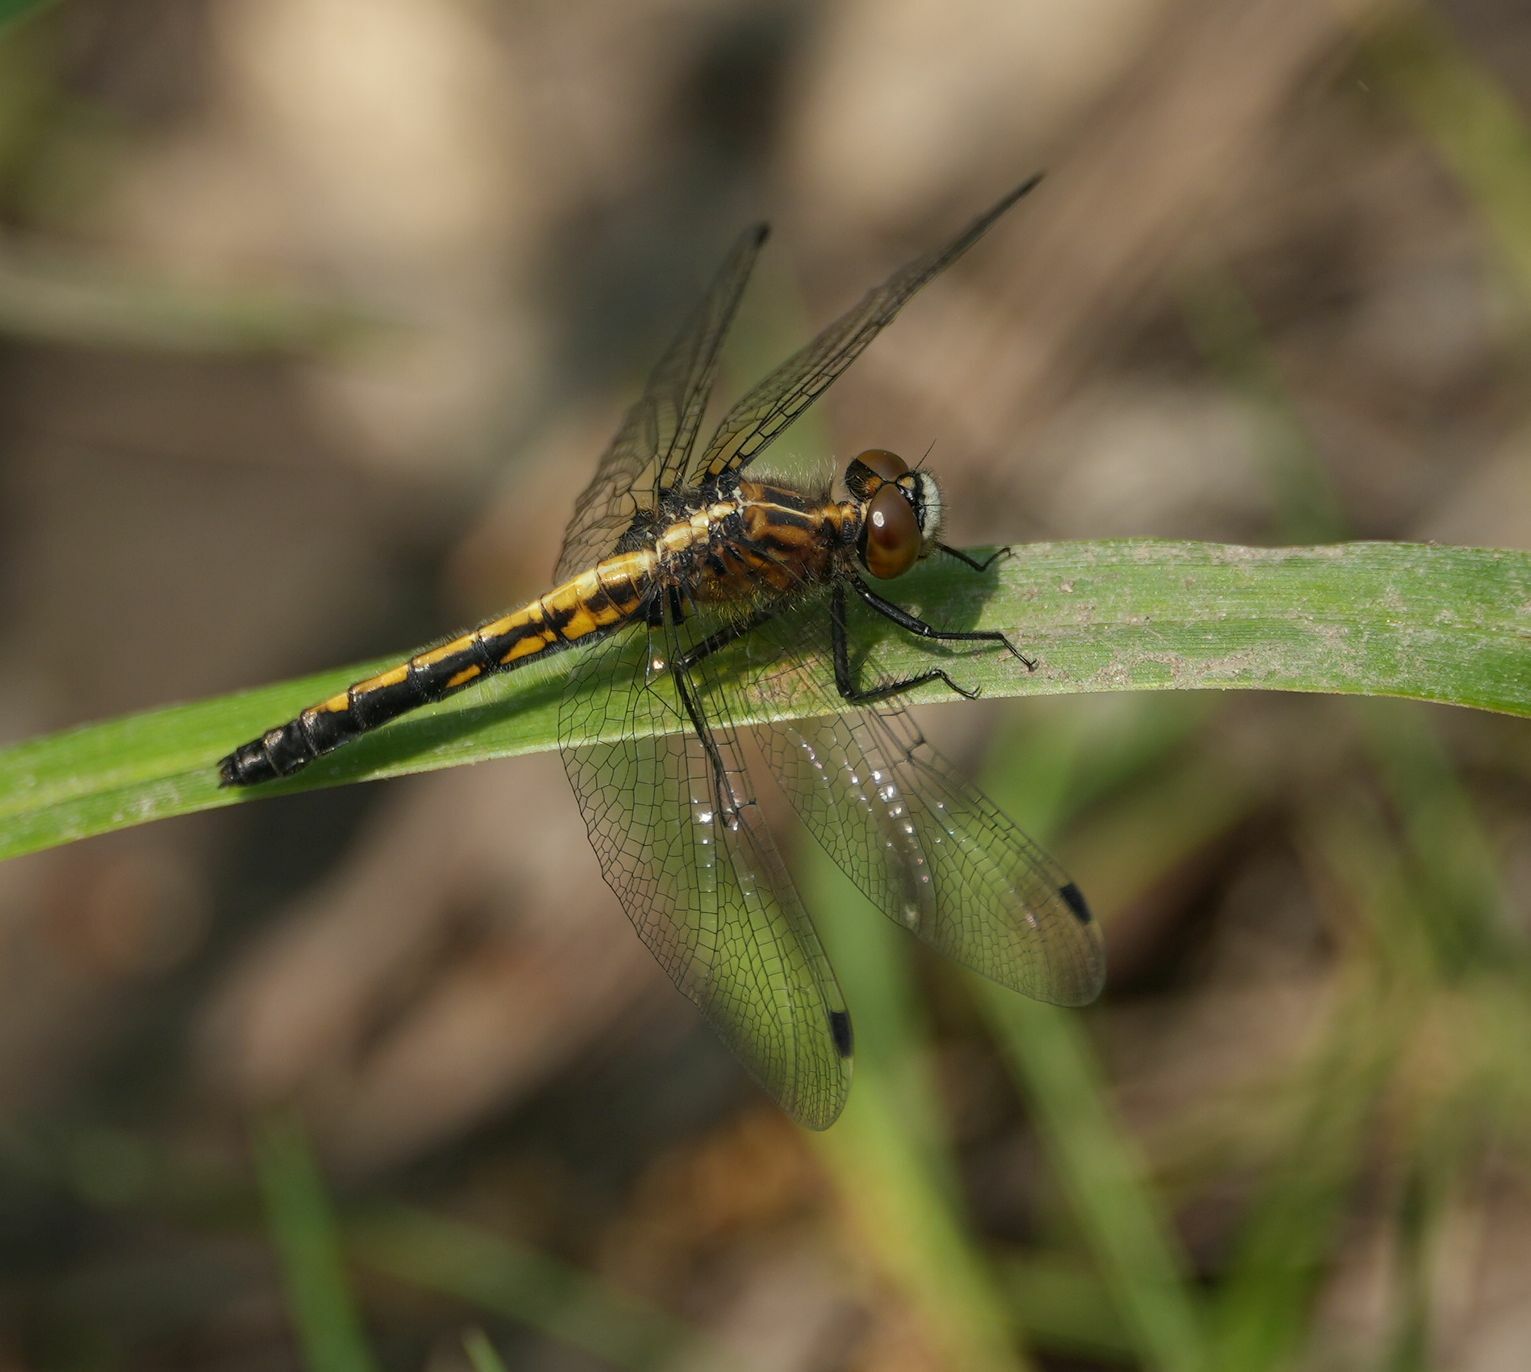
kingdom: Animalia
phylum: Arthropoda
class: Insecta
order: Odonata
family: Libellulidae
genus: Leucorrhinia
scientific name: Leucorrhinia intacta
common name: Dot-tailed whiteface
